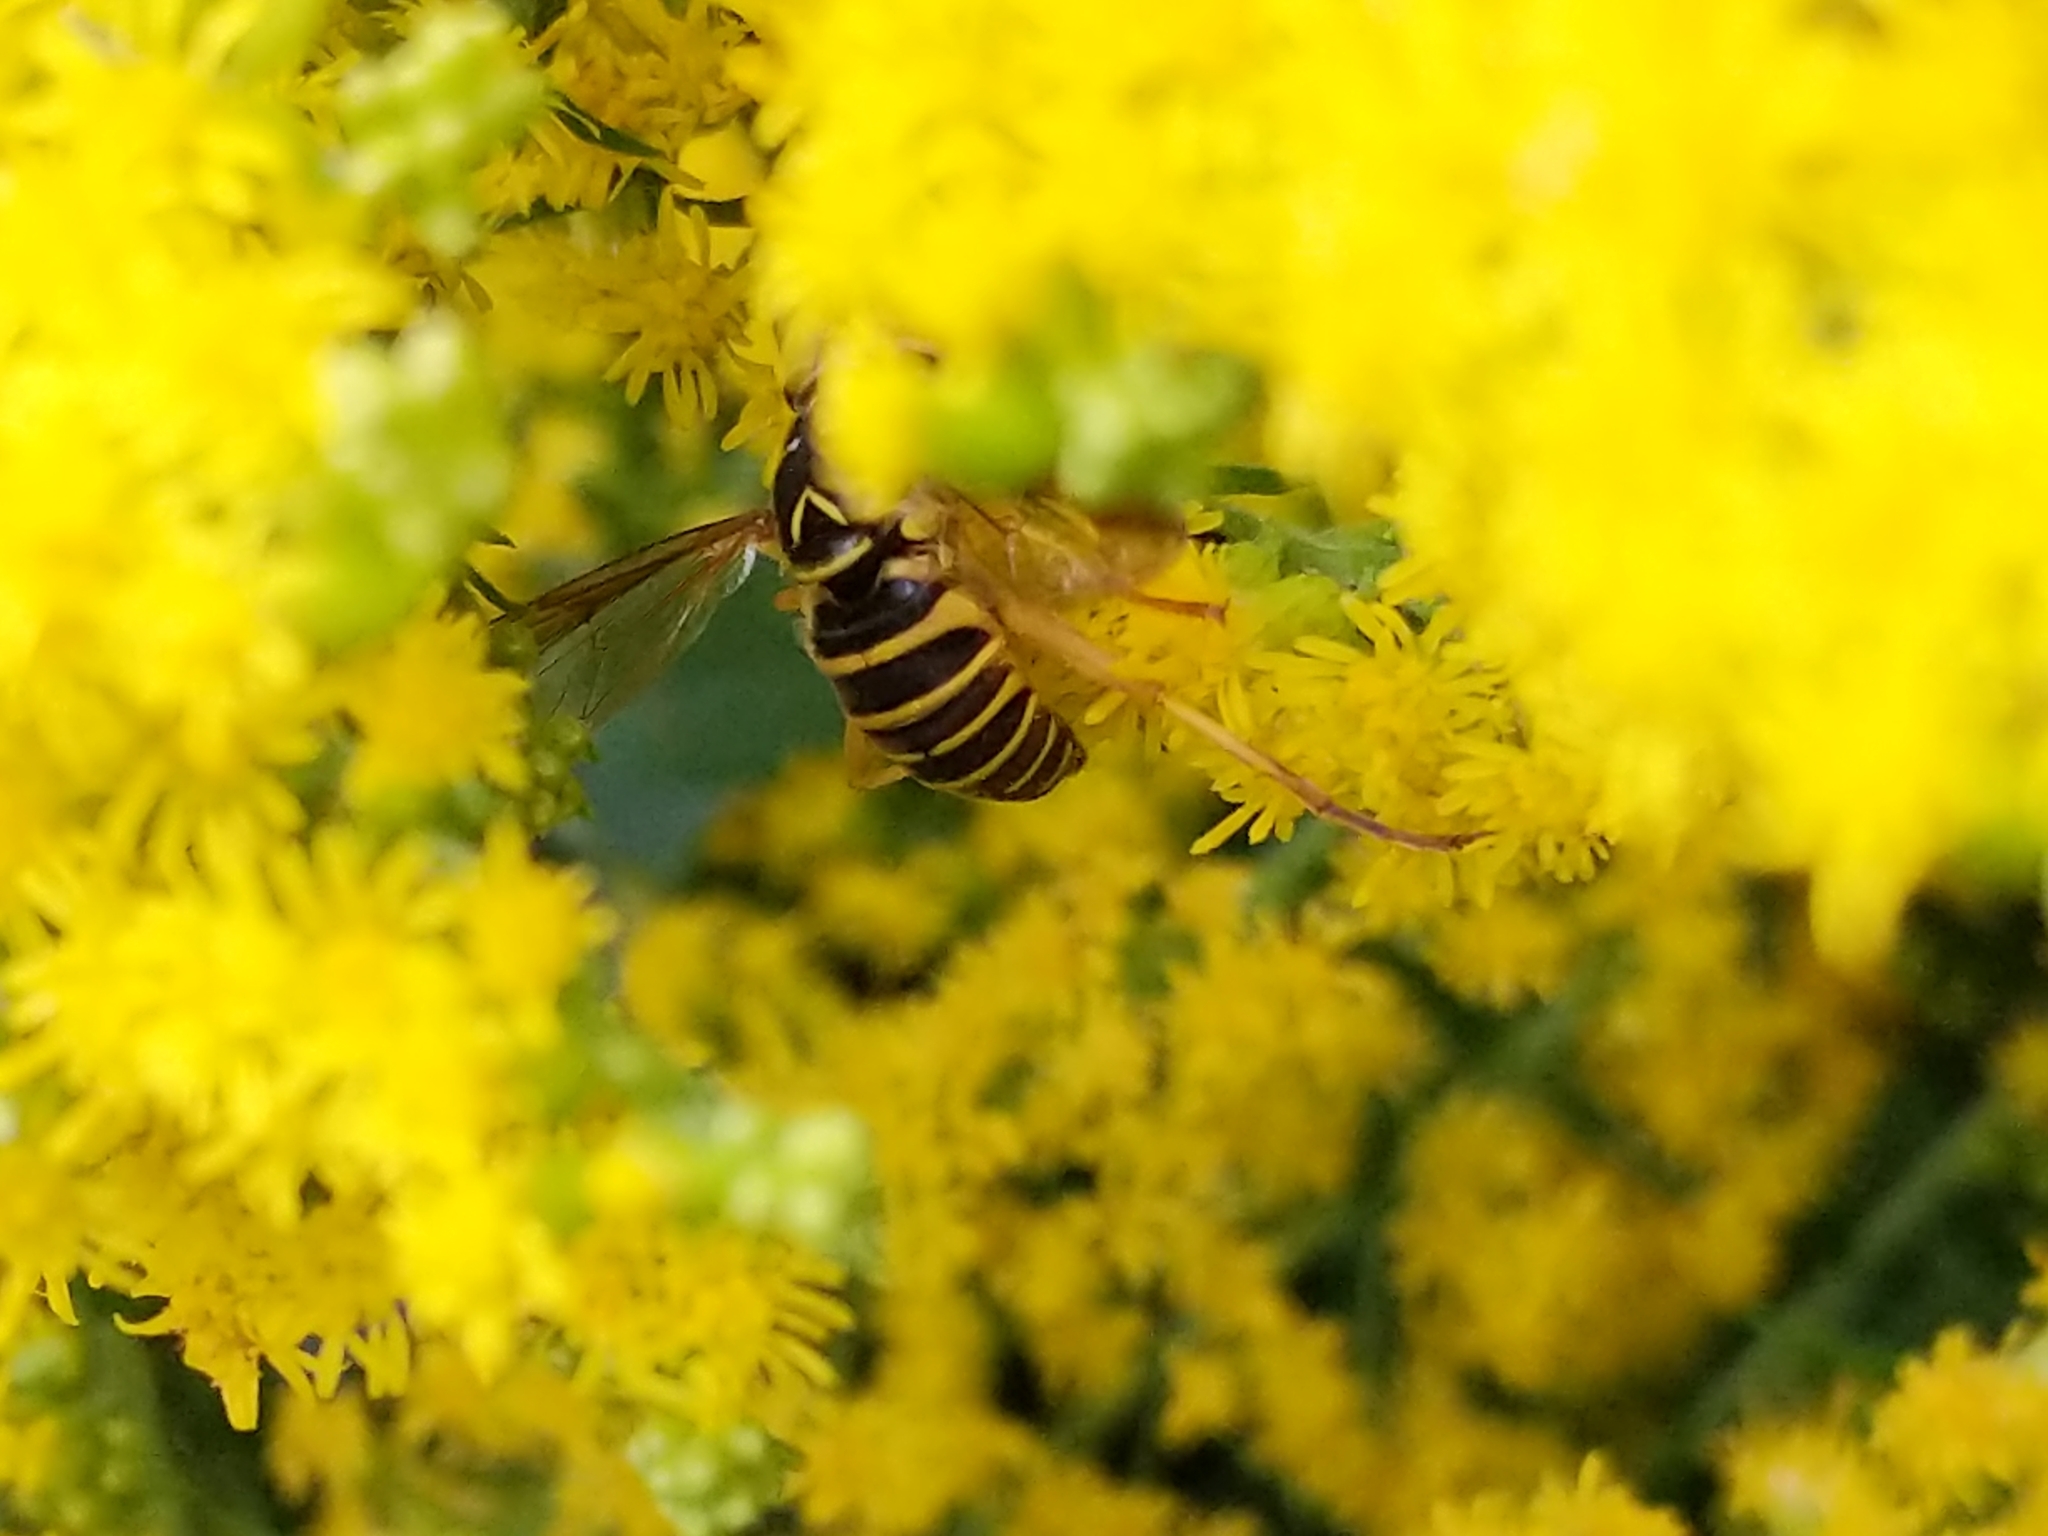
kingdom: Animalia
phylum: Arthropoda
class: Insecta
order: Diptera
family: Syrphidae
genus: Spilomyia
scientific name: Spilomyia longicornis
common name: Eastern hornet fly
